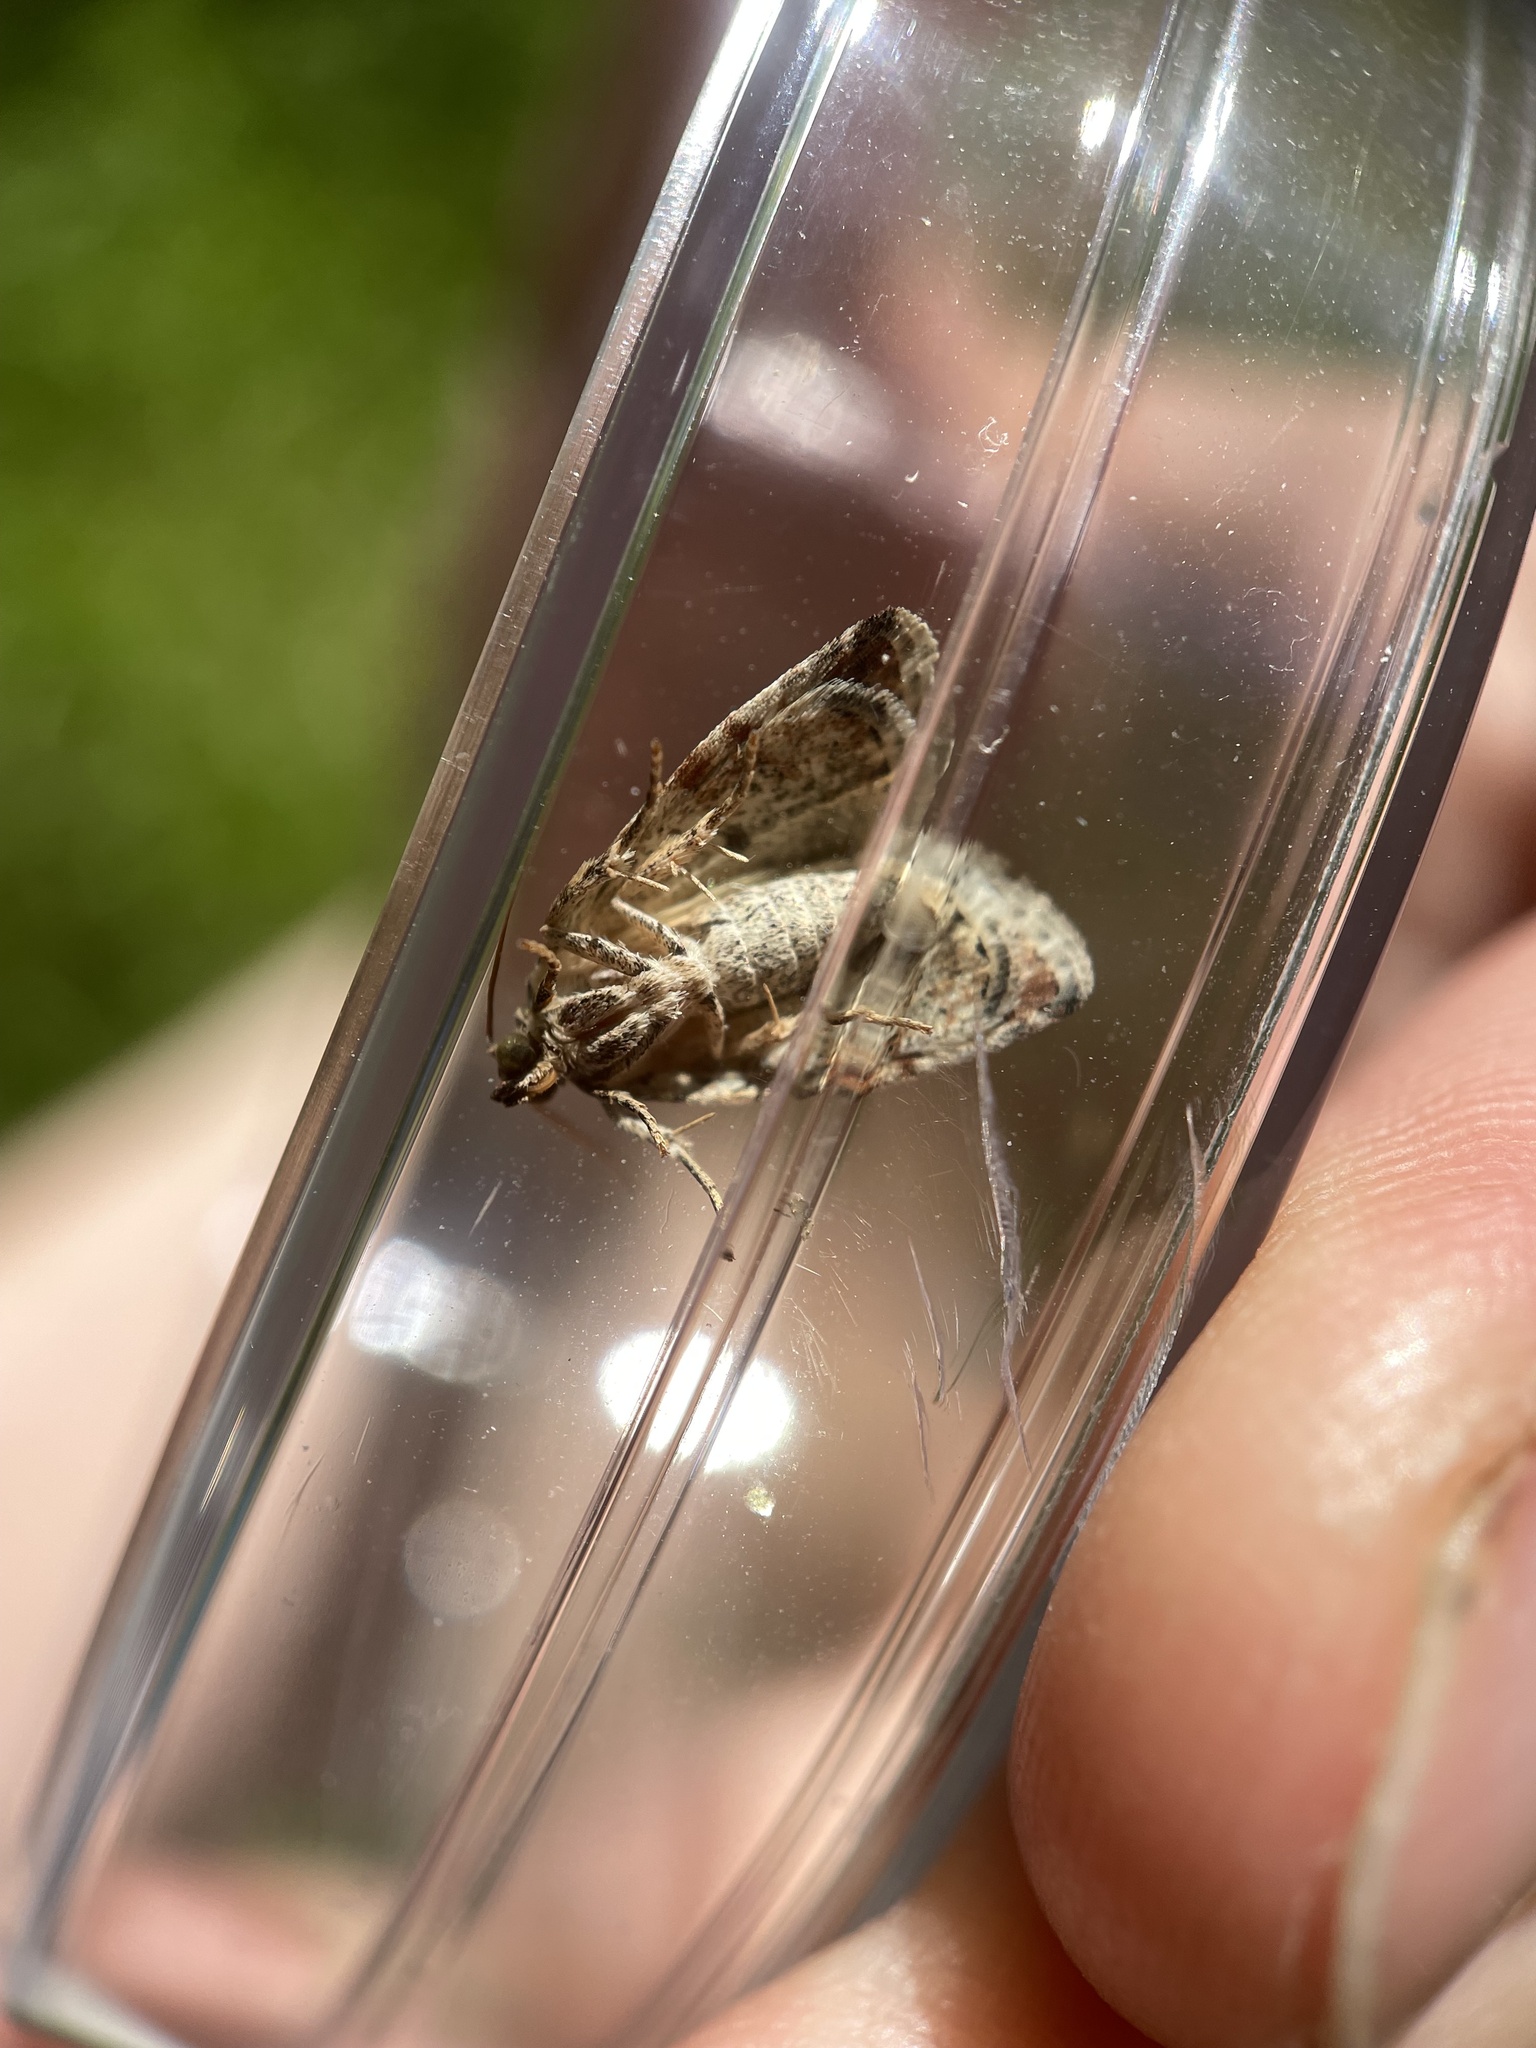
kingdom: Animalia
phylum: Arthropoda
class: Insecta
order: Lepidoptera
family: Noctuidae
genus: Maliattha
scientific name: Maliattha synochitis
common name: Black-dotted glyph
